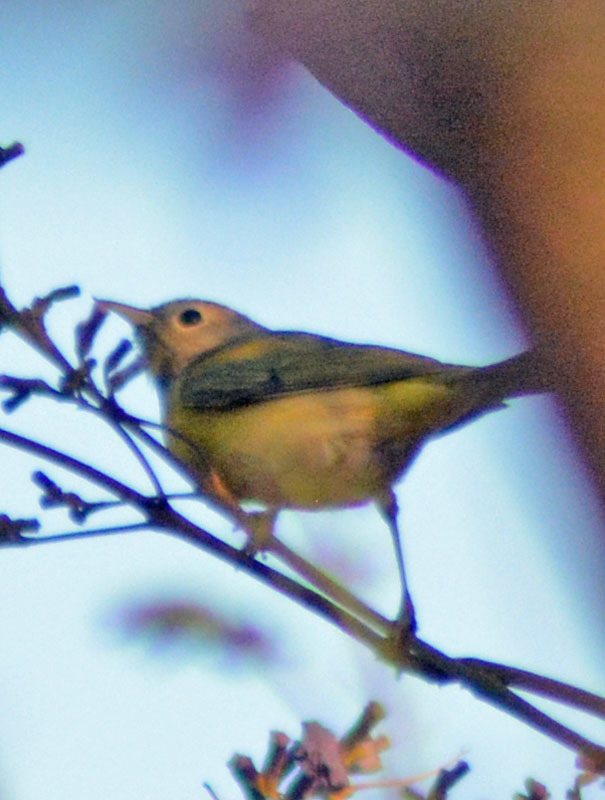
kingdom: Animalia
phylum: Chordata
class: Aves
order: Passeriformes
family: Parulidae
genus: Leiothlypis
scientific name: Leiothlypis ruficapilla
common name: Nashville warbler
